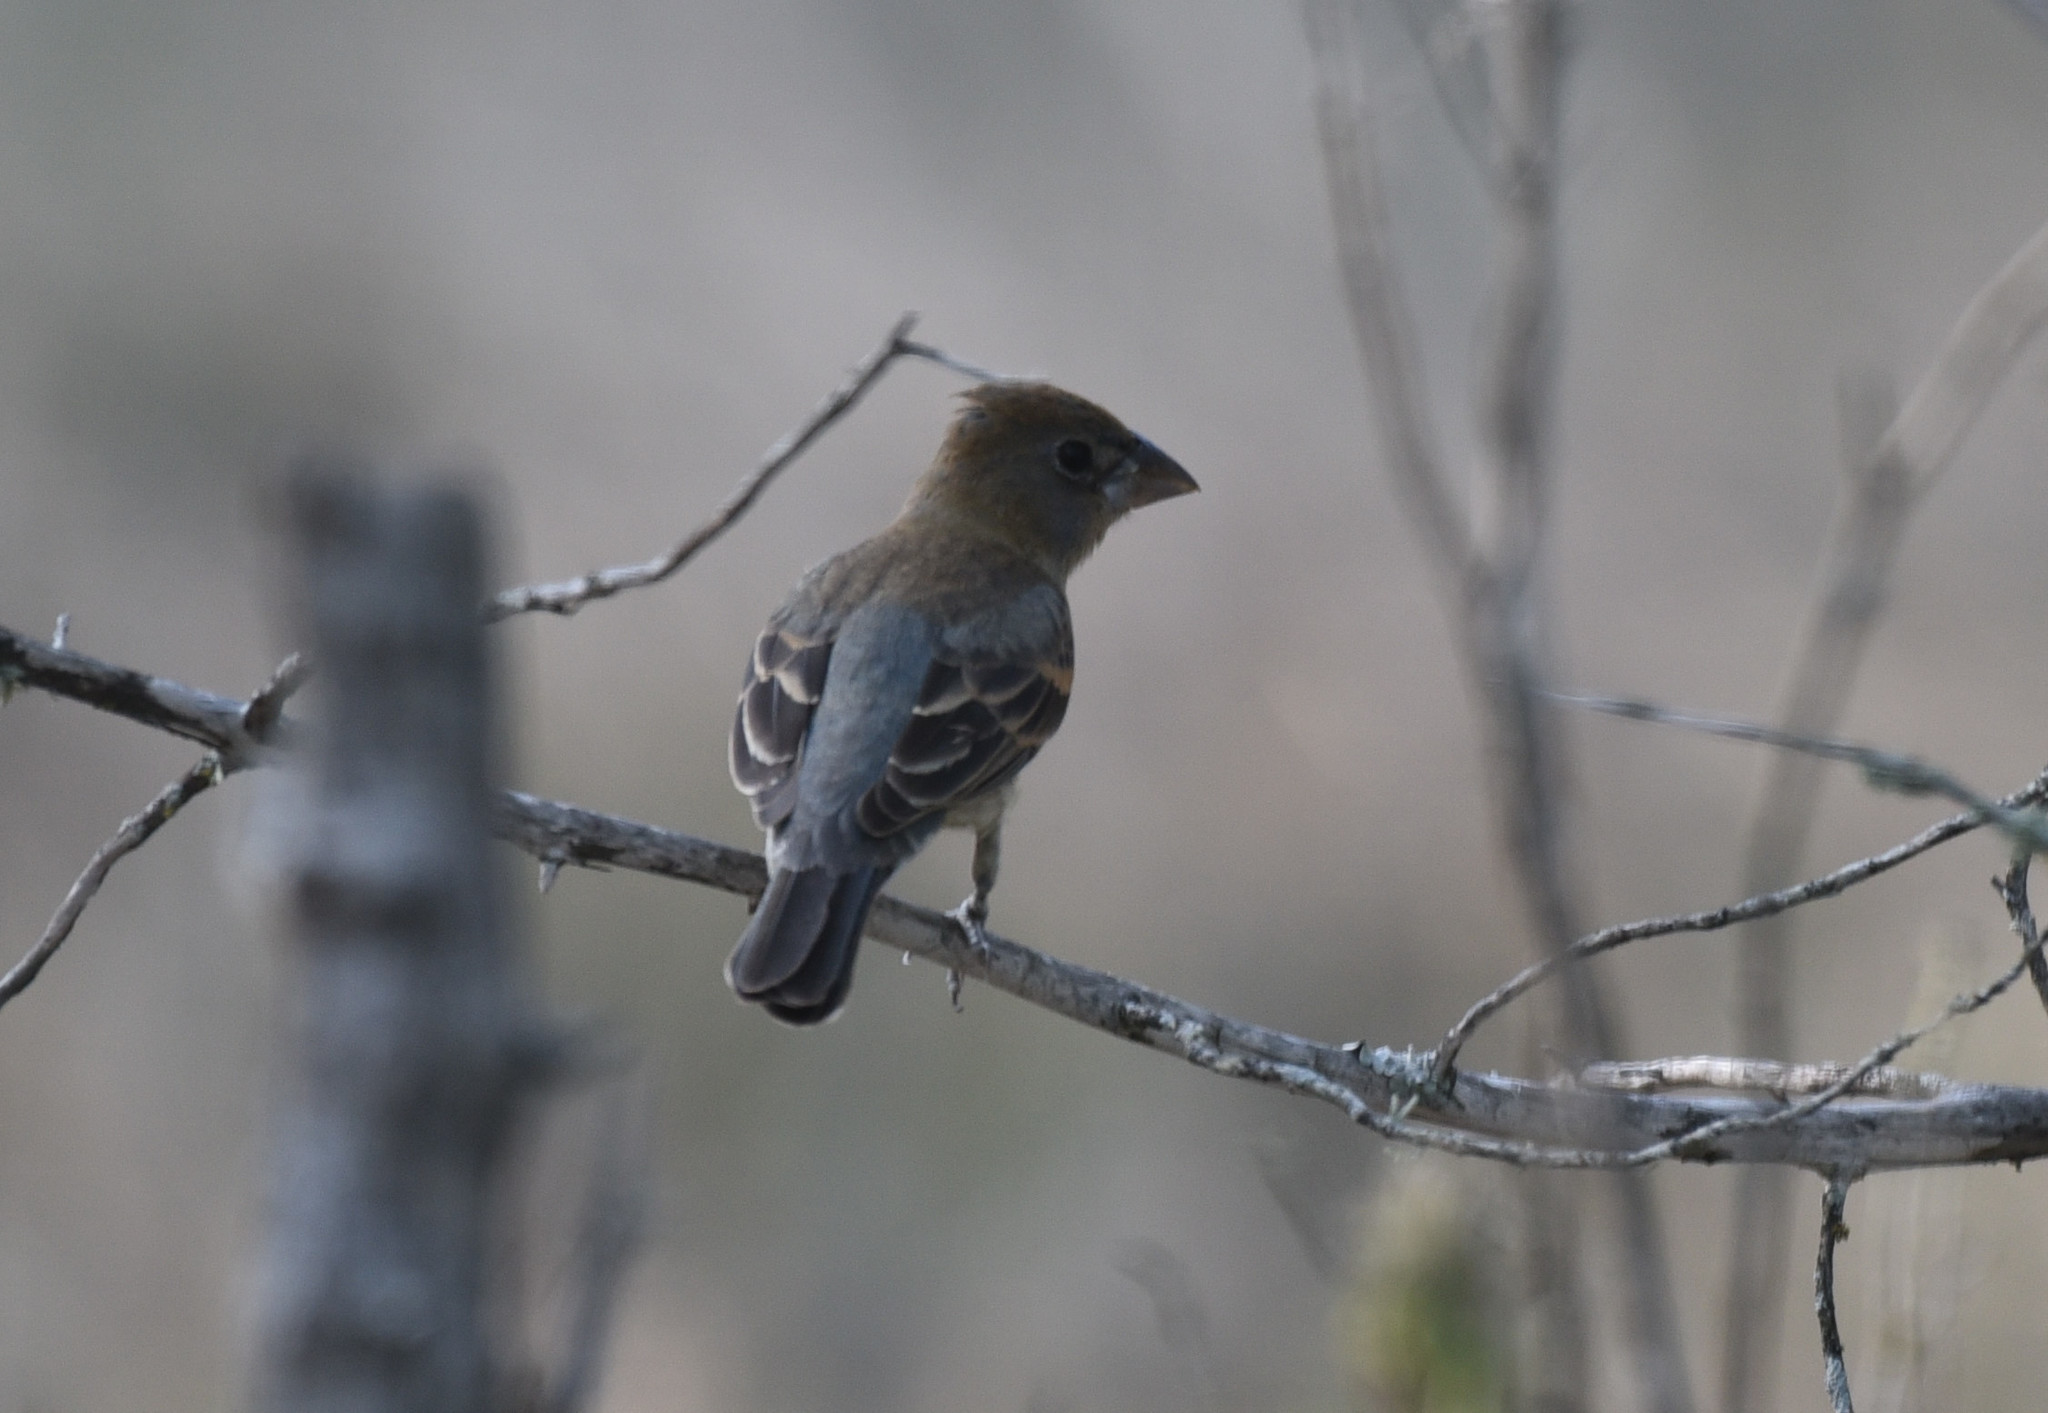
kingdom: Animalia
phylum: Chordata
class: Aves
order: Passeriformes
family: Cardinalidae
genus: Passerina
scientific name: Passerina caerulea
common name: Blue grosbeak
